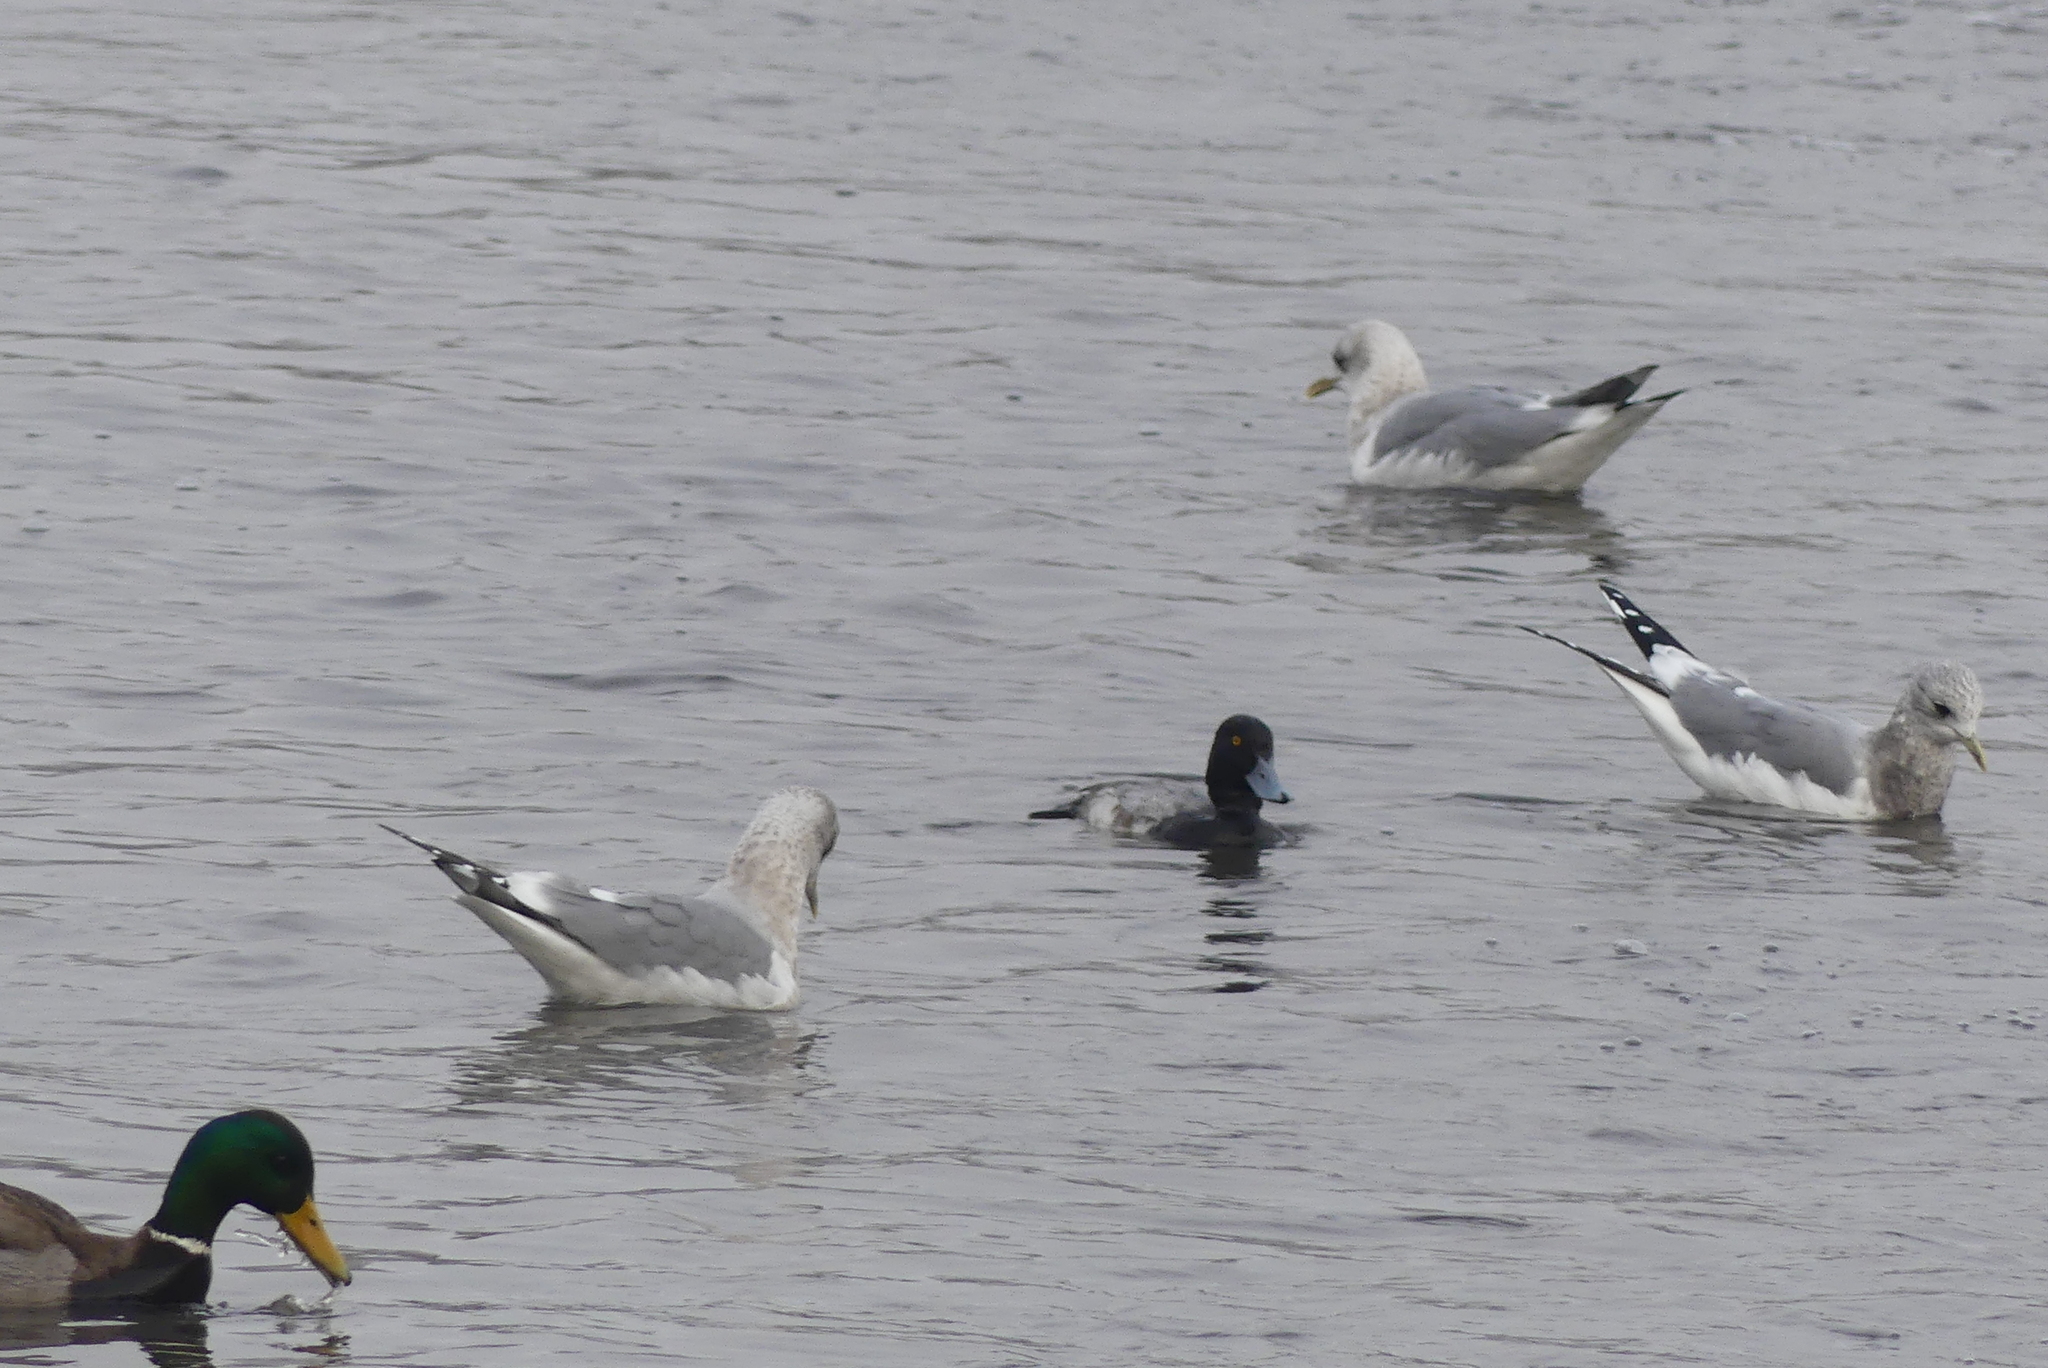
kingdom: Animalia
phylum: Chordata
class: Aves
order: Anseriformes
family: Anatidae
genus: Aythya
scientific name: Aythya affinis
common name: Lesser scaup
